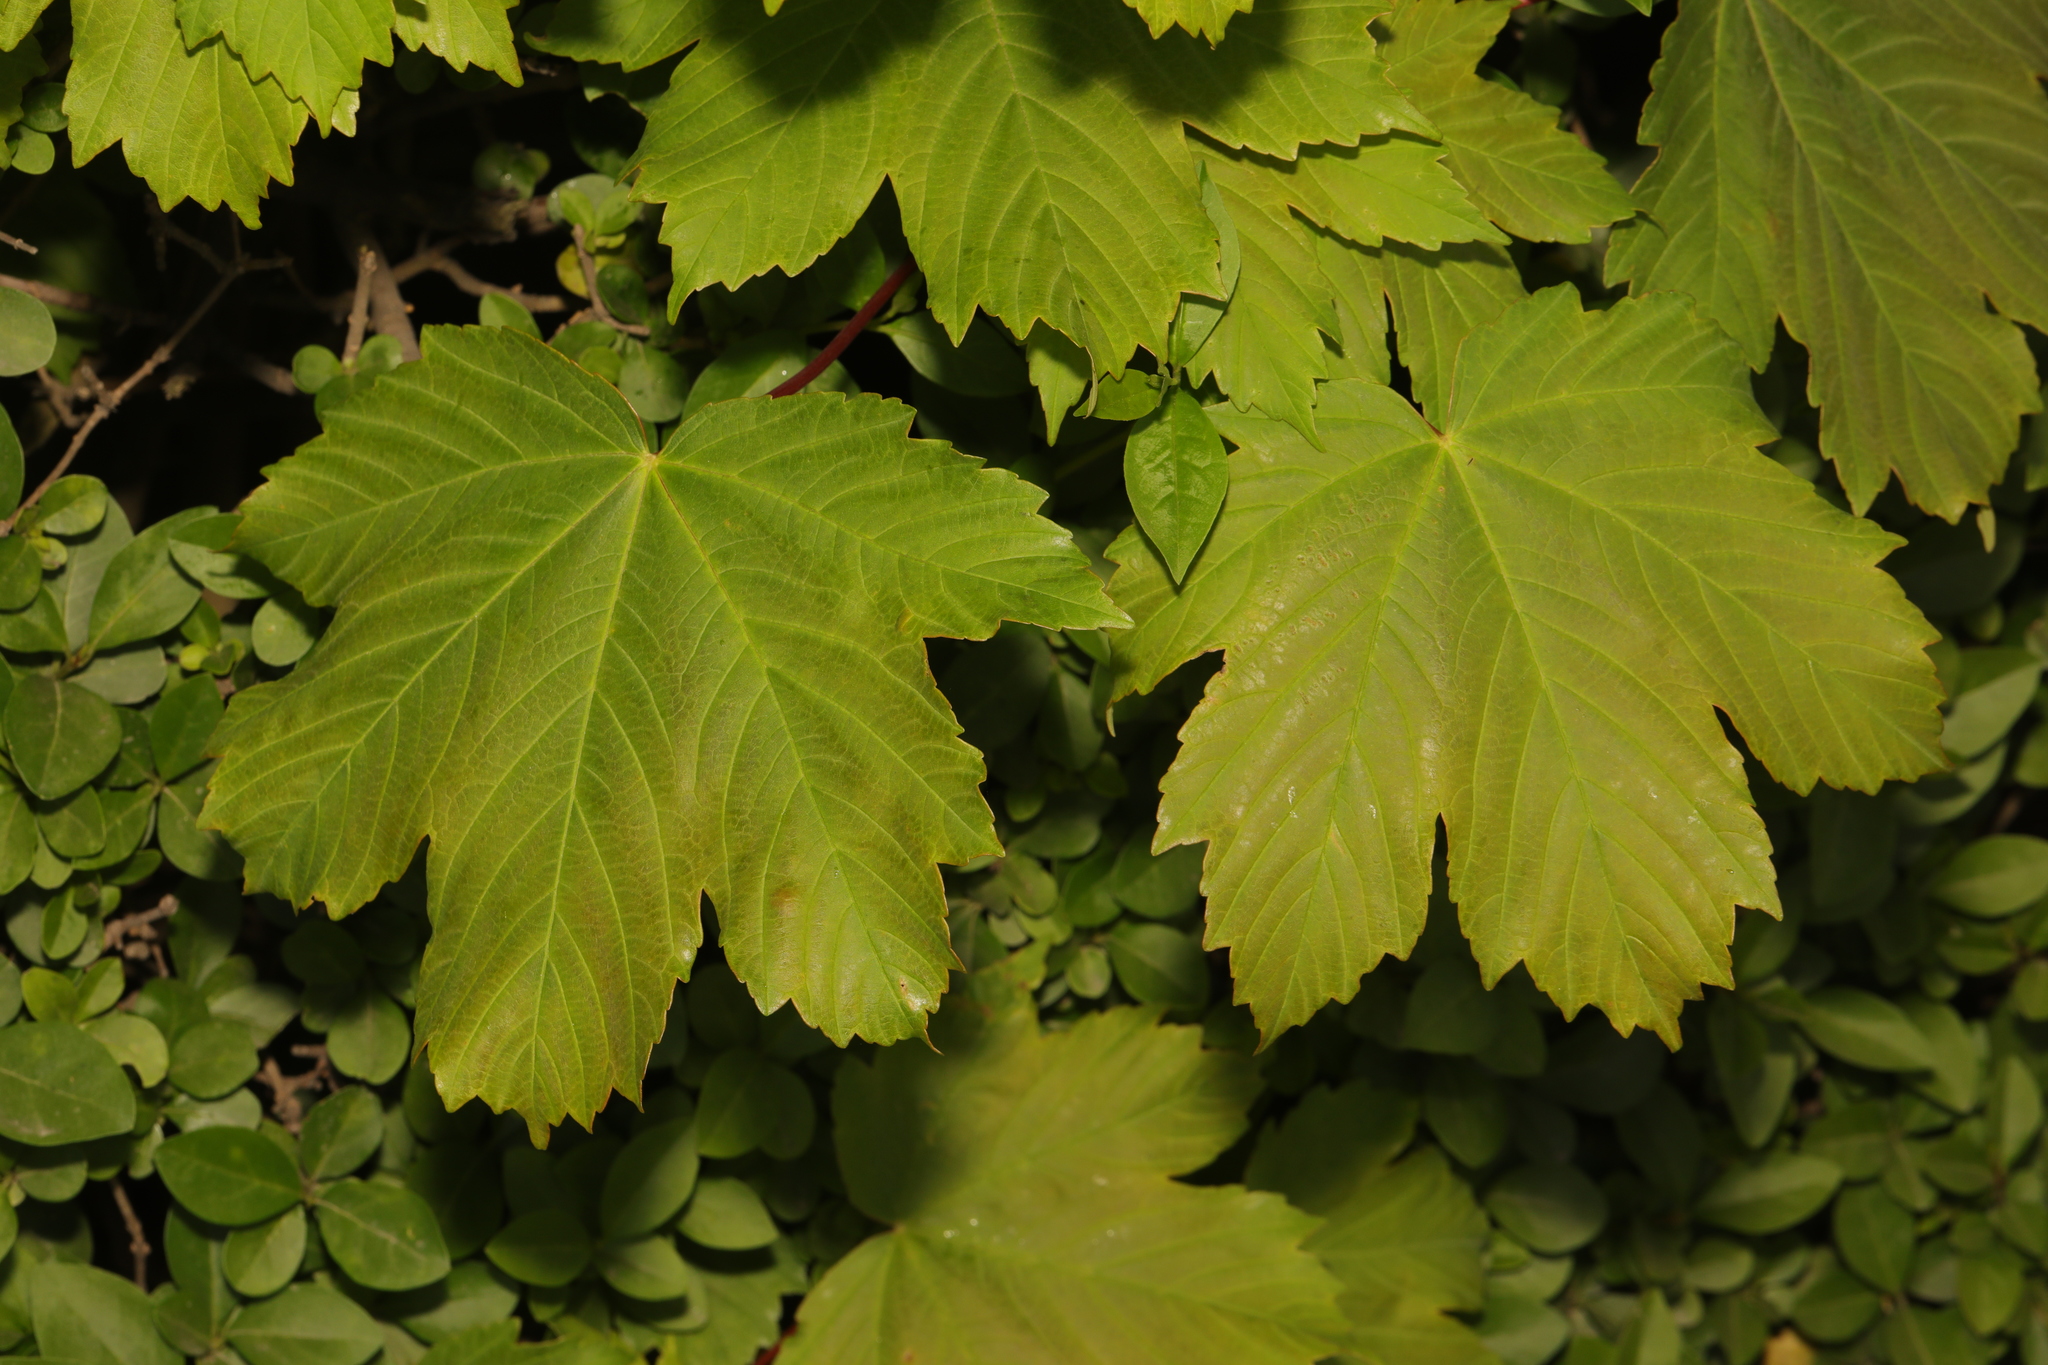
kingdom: Plantae
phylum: Tracheophyta
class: Magnoliopsida
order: Sapindales
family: Sapindaceae
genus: Acer
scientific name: Acer pseudoplatanus
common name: Sycamore
